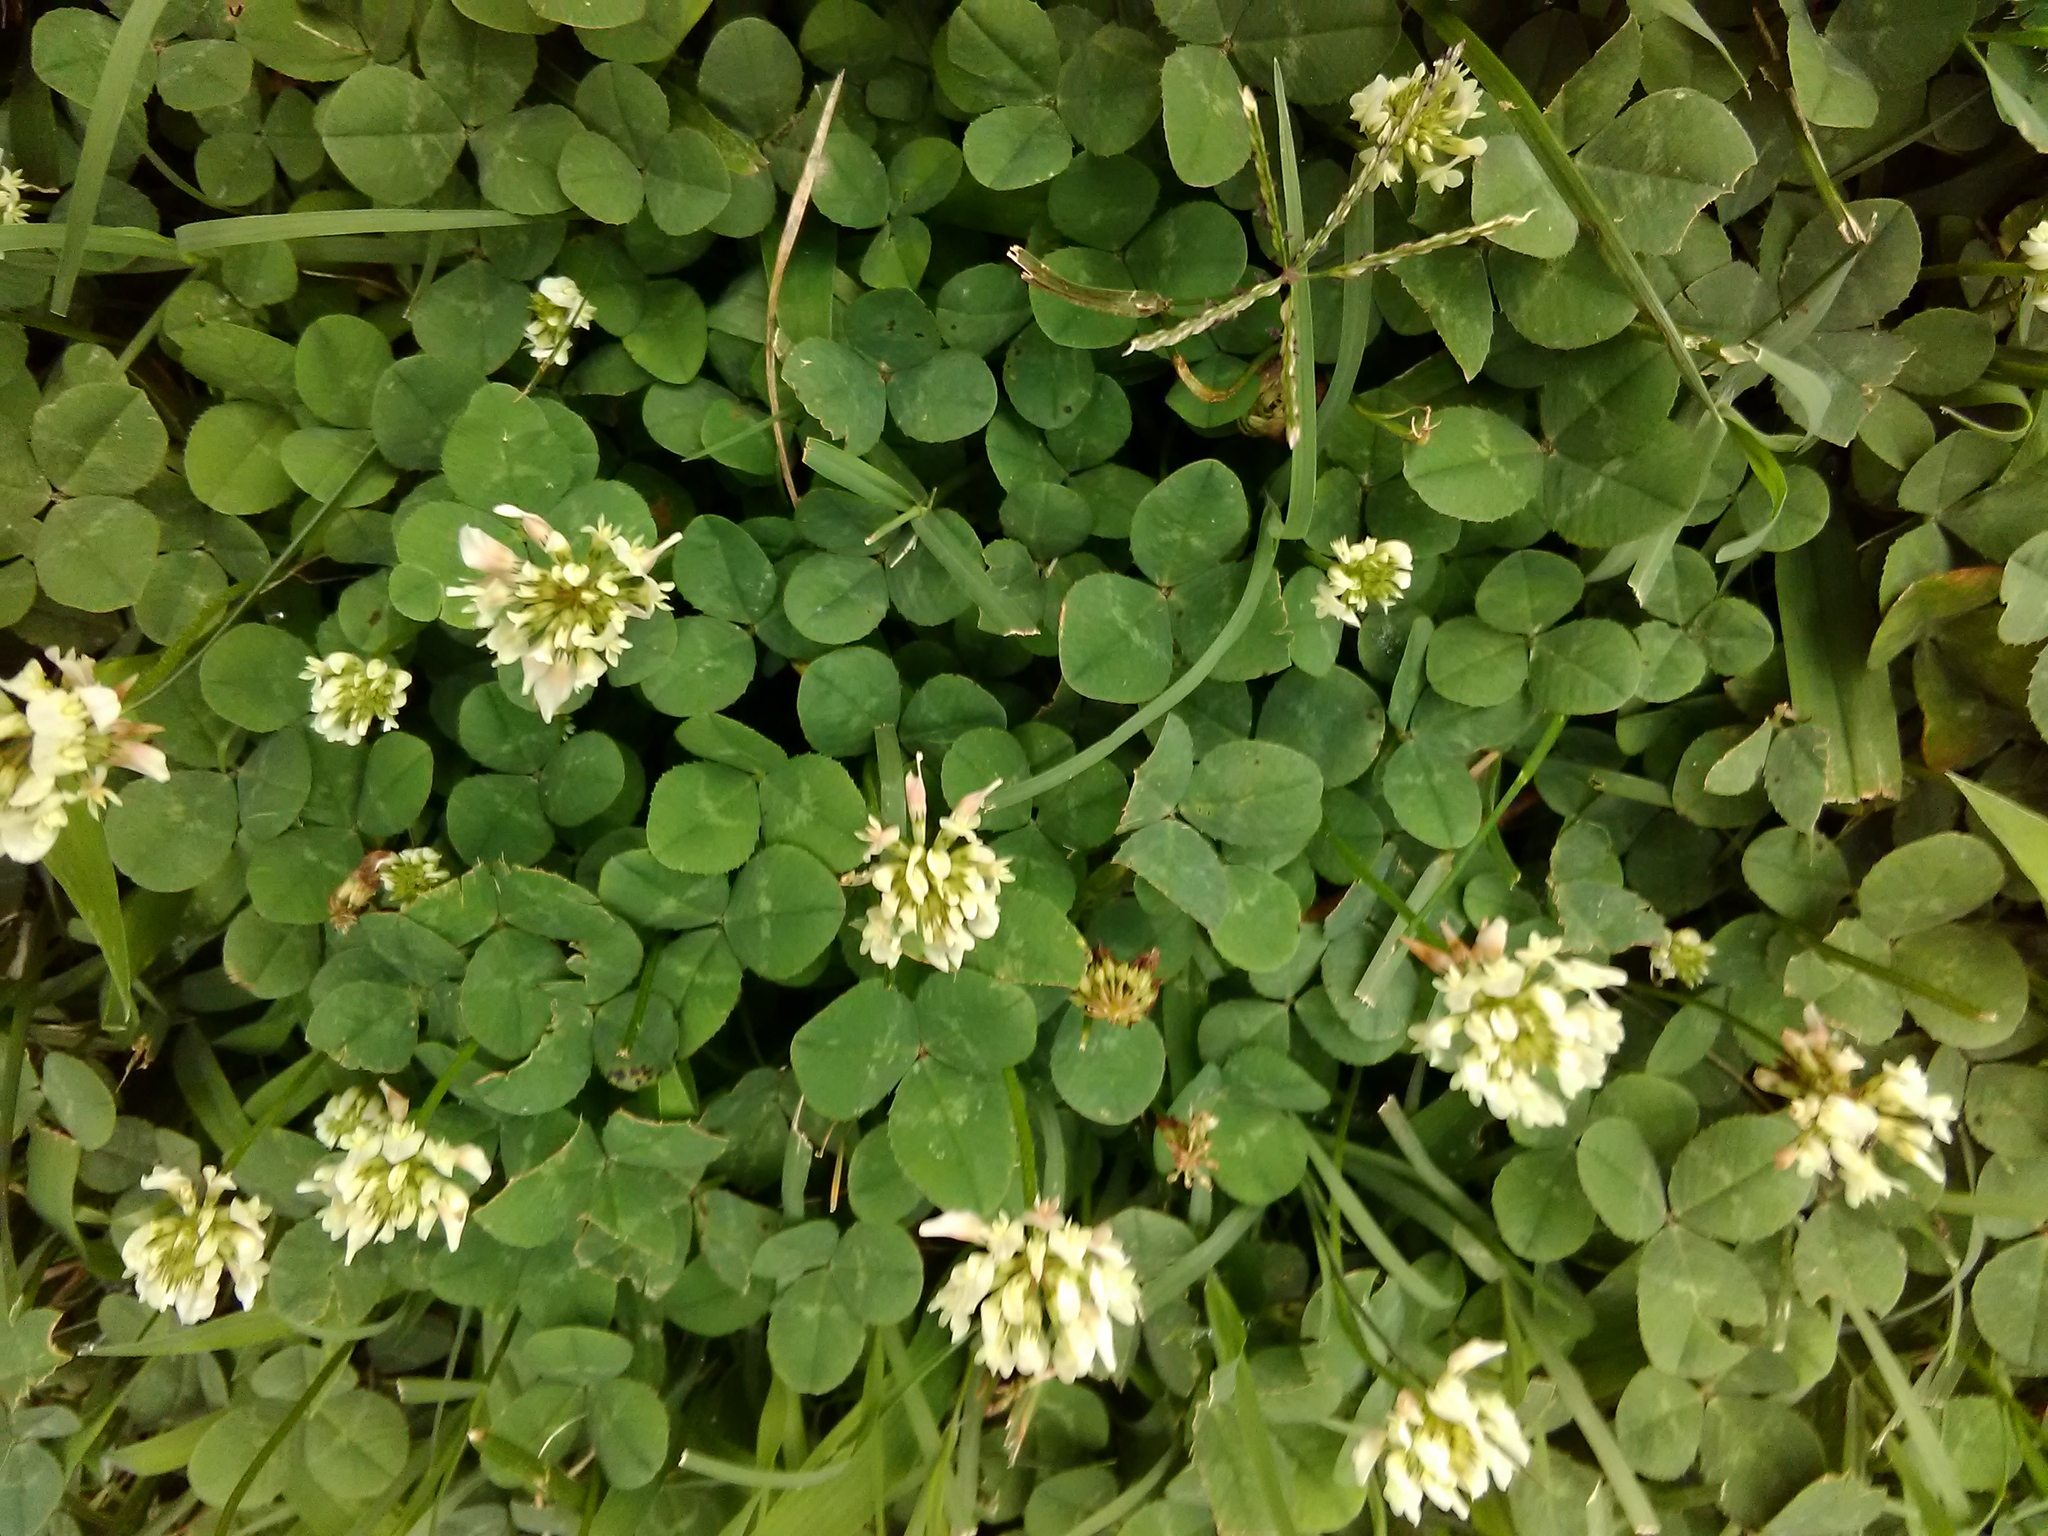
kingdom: Plantae
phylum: Tracheophyta
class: Magnoliopsida
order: Fabales
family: Fabaceae
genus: Trifolium
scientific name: Trifolium repens
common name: White clover
